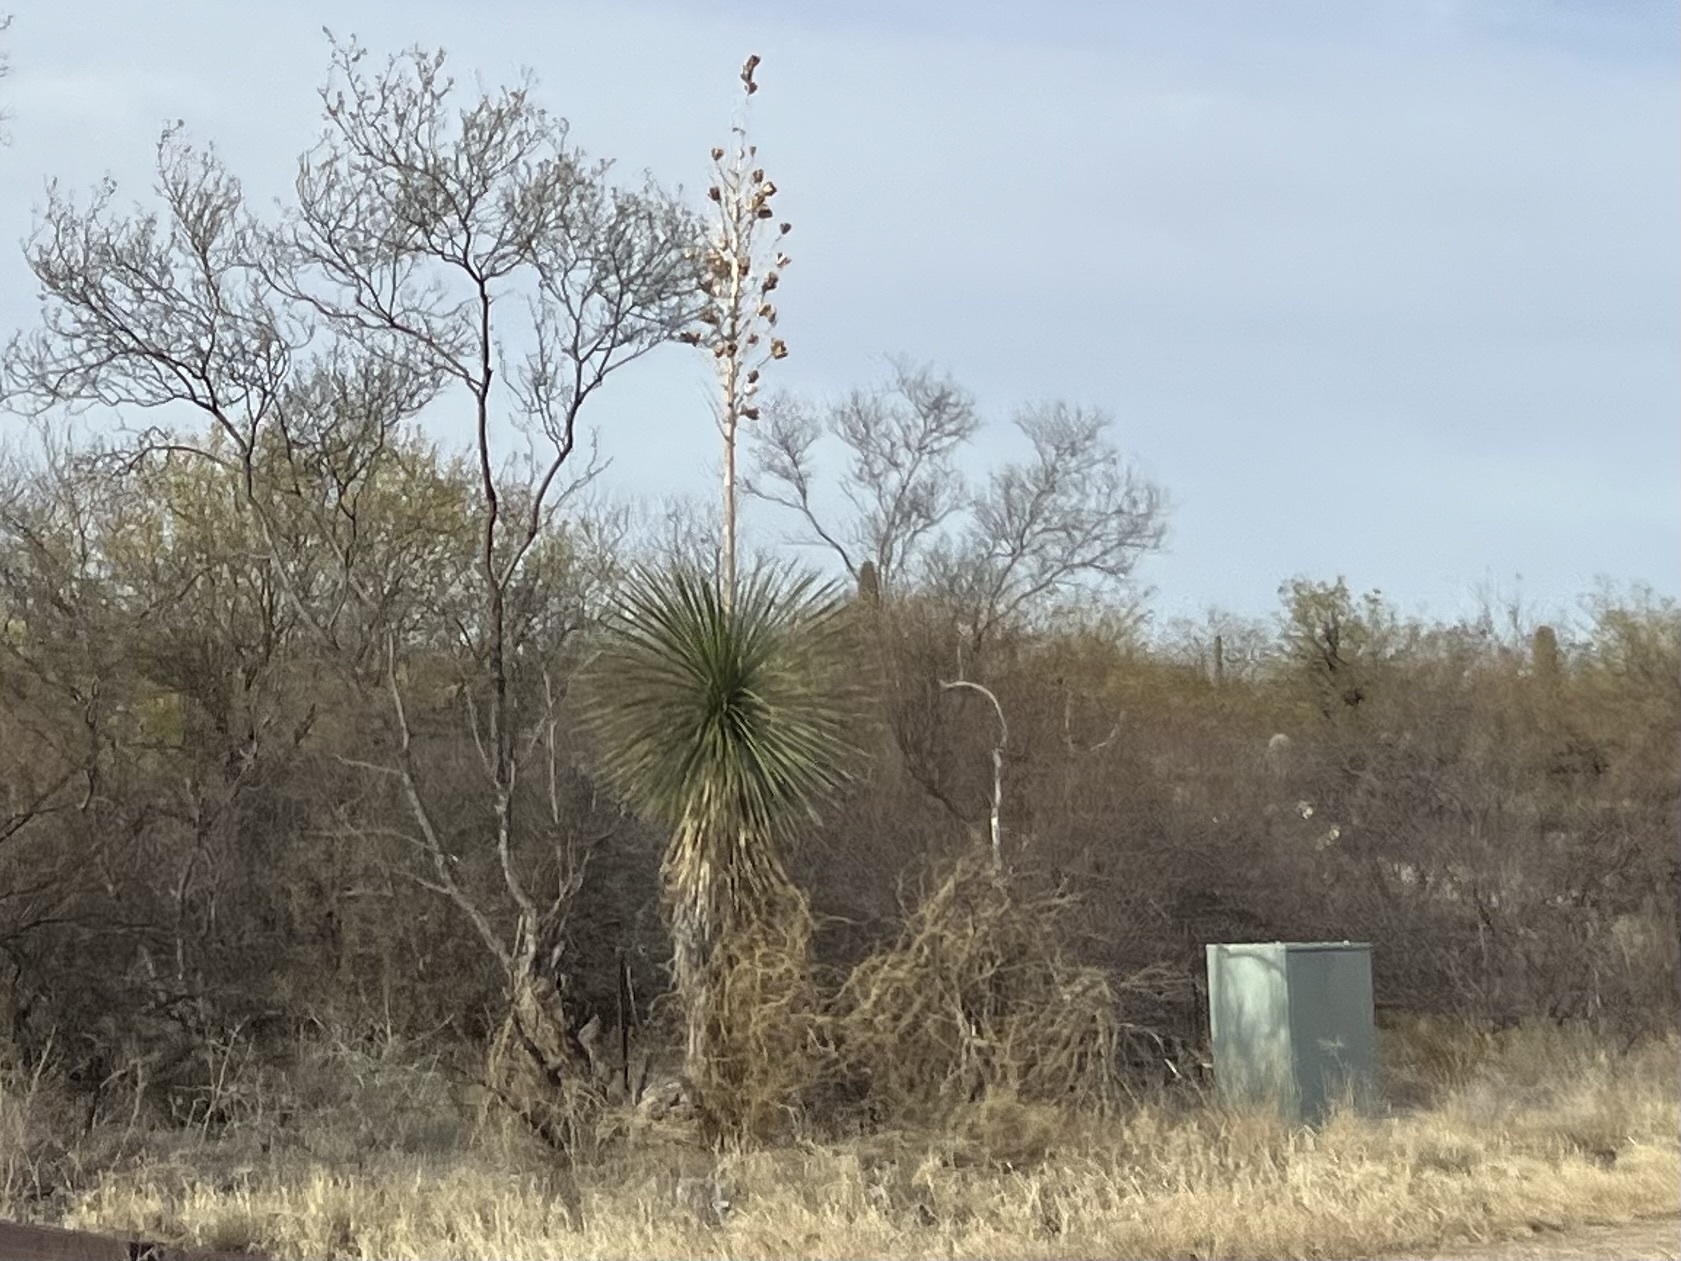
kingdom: Plantae
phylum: Tracheophyta
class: Liliopsida
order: Asparagales
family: Asparagaceae
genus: Yucca
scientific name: Yucca elata
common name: Palmella
